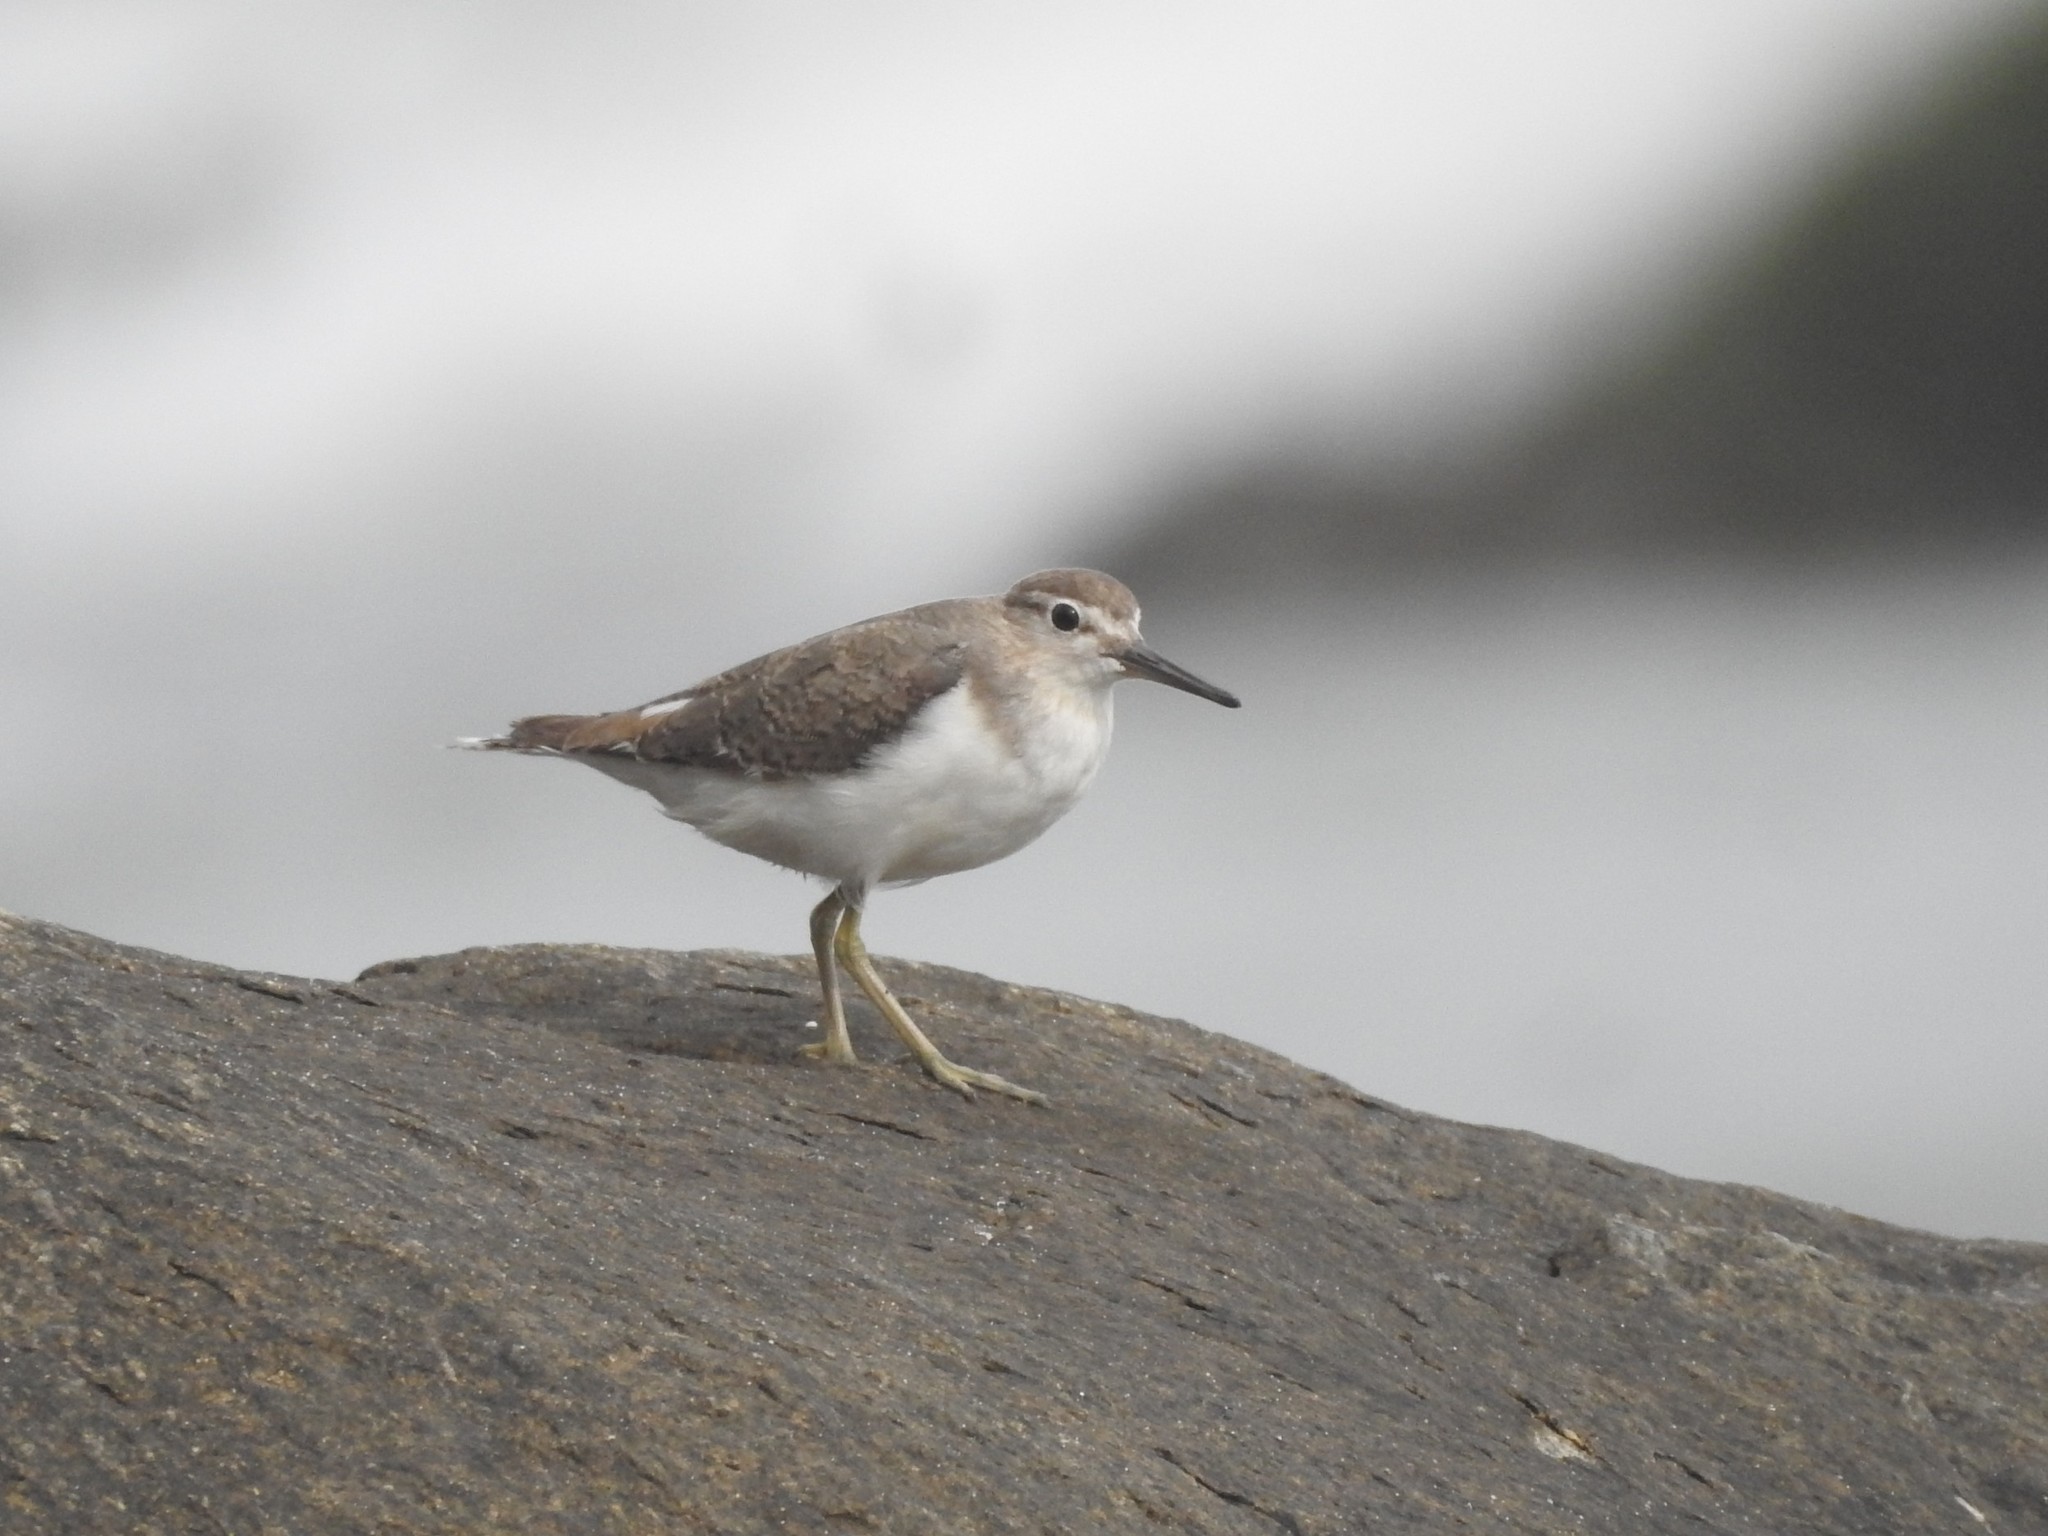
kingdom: Animalia
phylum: Chordata
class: Aves
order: Charadriiformes
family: Scolopacidae
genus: Actitis
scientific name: Actitis hypoleucos
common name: Common sandpiper
